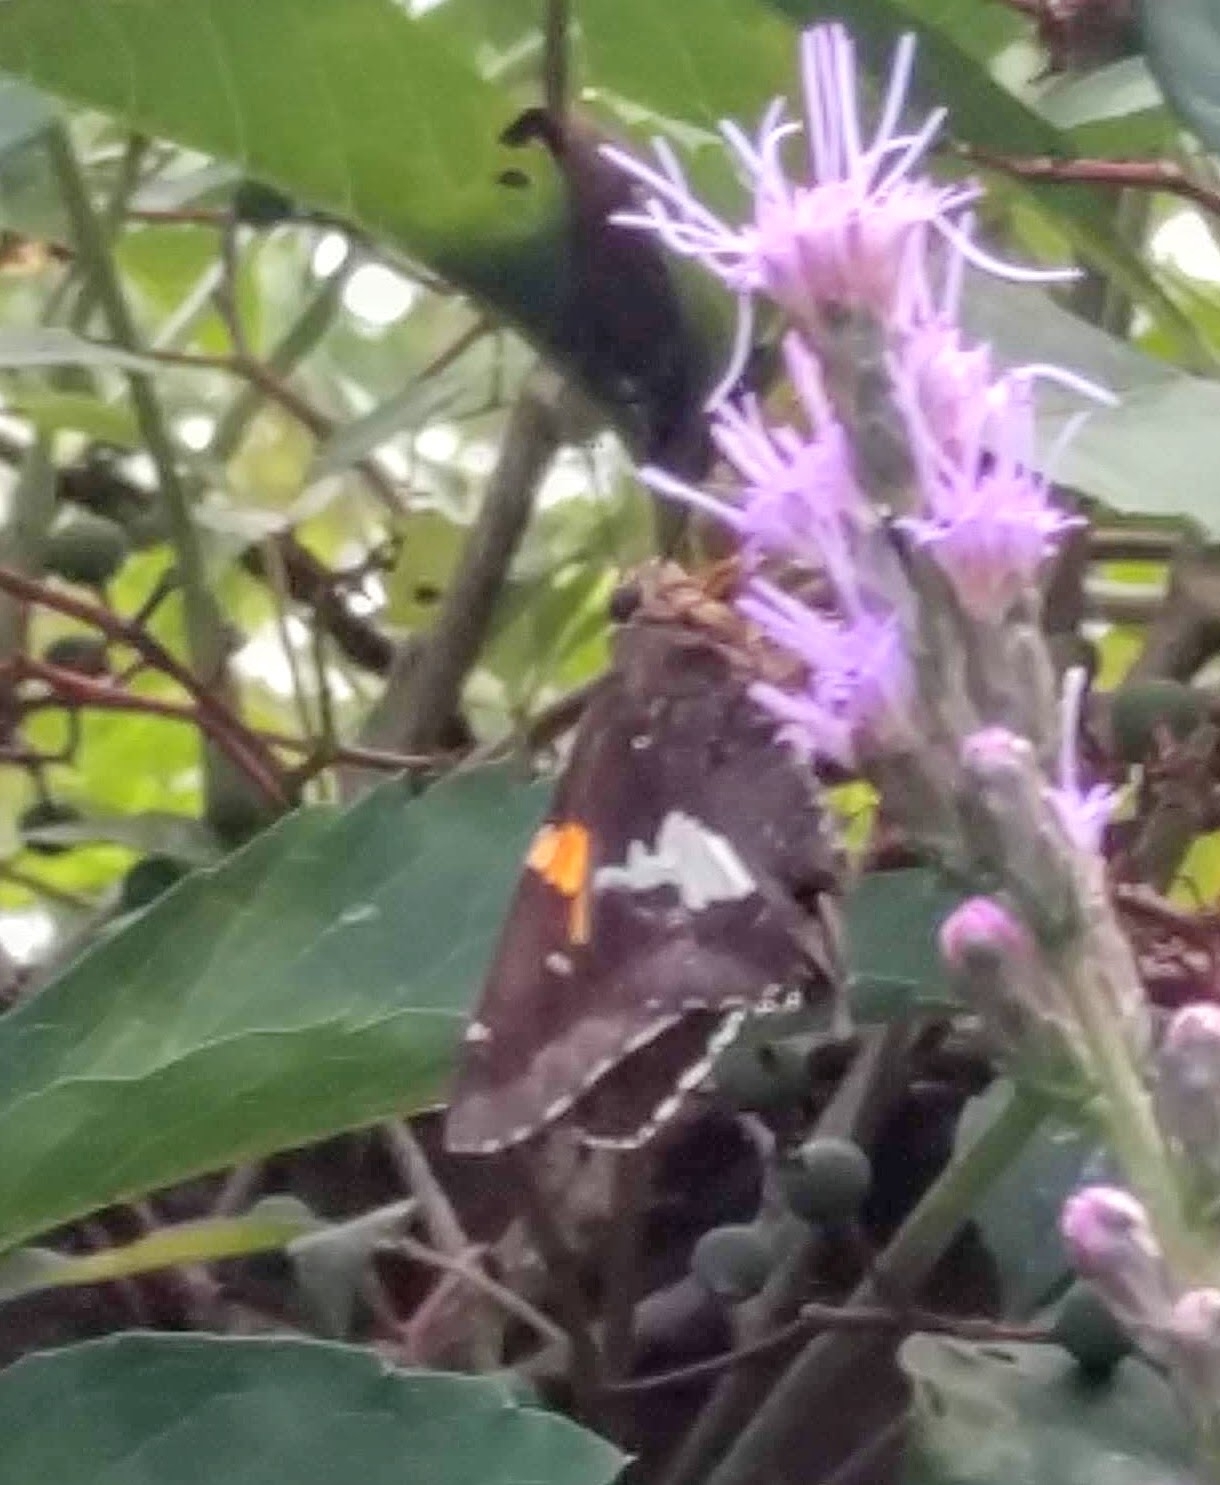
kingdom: Animalia
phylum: Arthropoda
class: Insecta
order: Lepidoptera
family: Hesperiidae
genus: Epargyreus
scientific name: Epargyreus clarus
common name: Silver-spotted skipper
